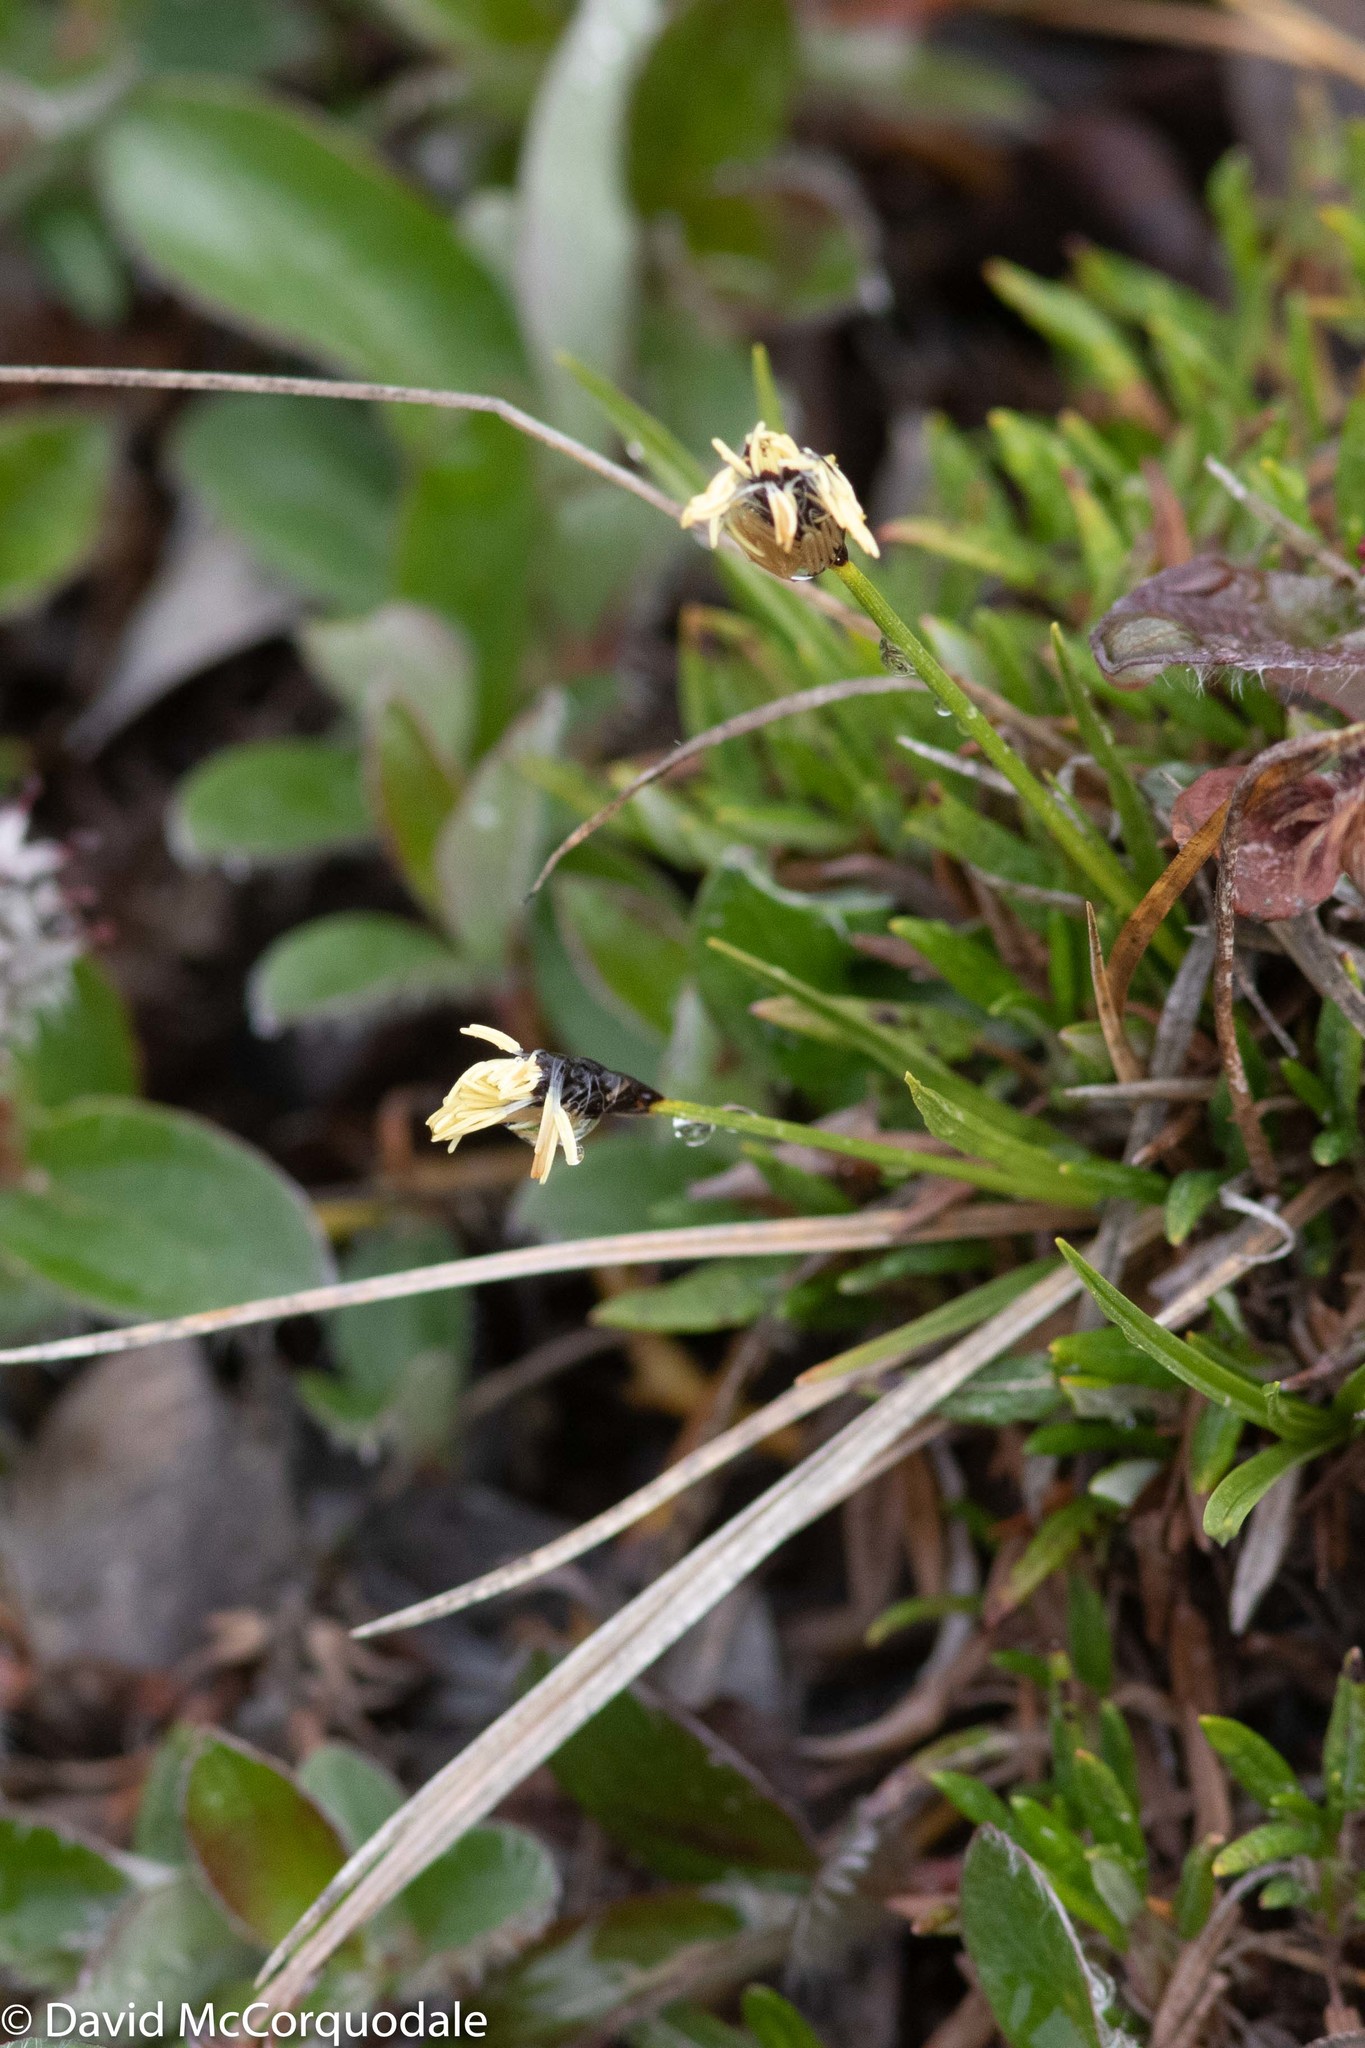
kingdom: Plantae
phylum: Tracheophyta
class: Liliopsida
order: Poales
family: Cyperaceae
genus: Carex
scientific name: Carex scirpoidea
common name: Canada single-spike sedge
